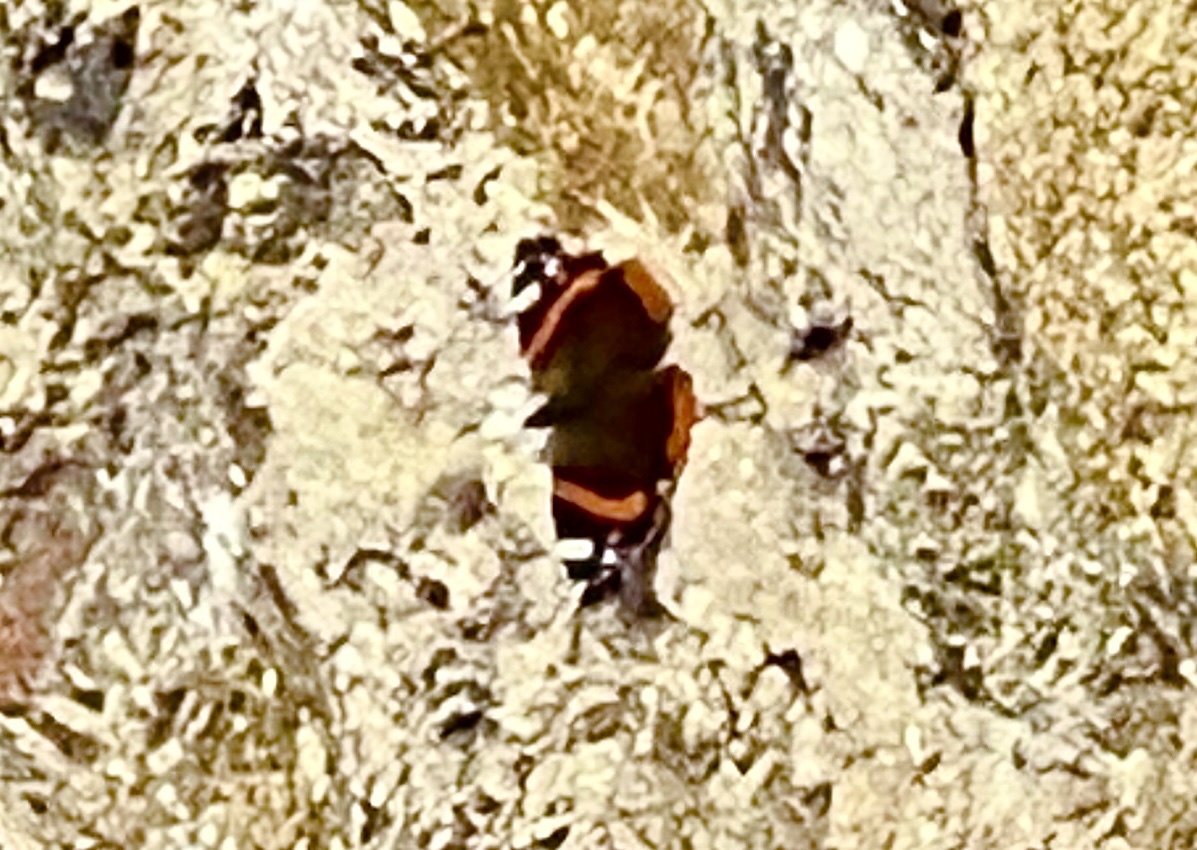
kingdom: Animalia
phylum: Arthropoda
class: Insecta
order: Lepidoptera
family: Nymphalidae
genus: Vanessa
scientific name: Vanessa atalanta
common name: Red admiral
